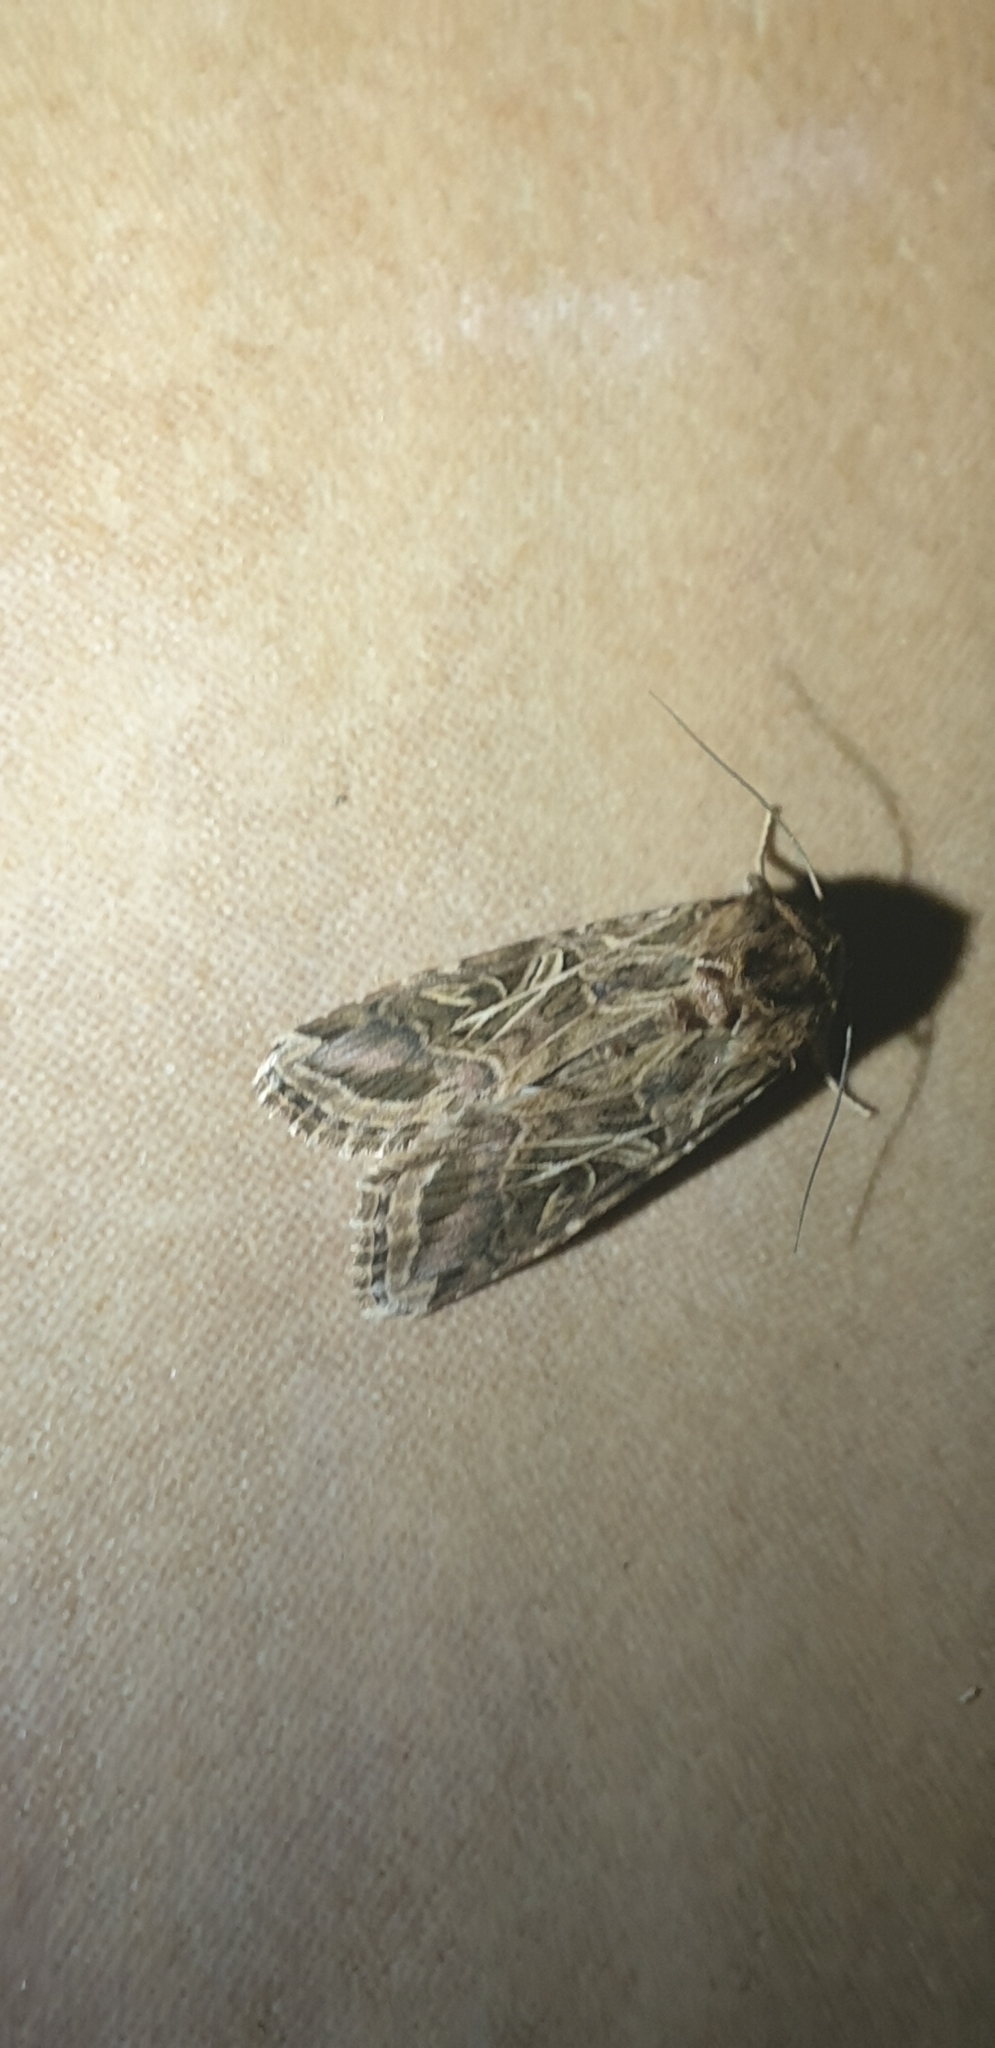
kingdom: Animalia
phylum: Arthropoda
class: Insecta
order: Lepidoptera
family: Noctuidae
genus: Spodoptera
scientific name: Spodoptera litura
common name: Asian cotton leafworm
